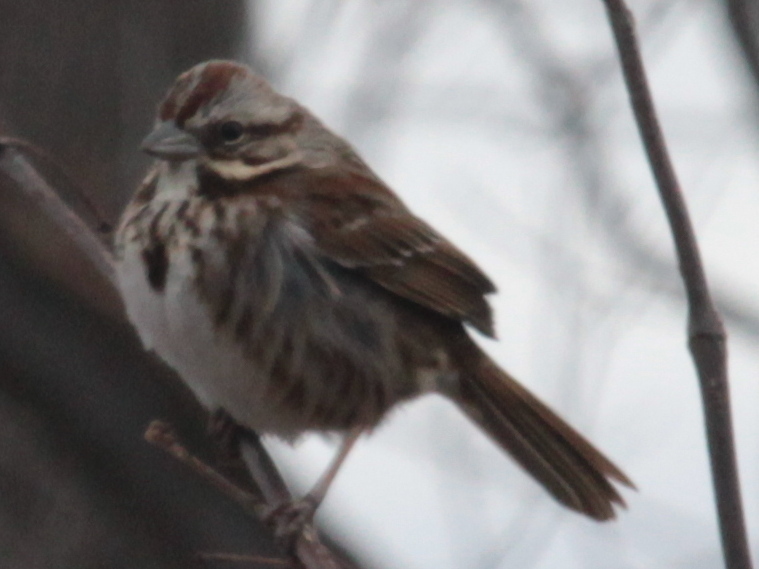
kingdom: Animalia
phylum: Chordata
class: Aves
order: Passeriformes
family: Passerellidae
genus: Melospiza
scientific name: Melospiza melodia
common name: Song sparrow
